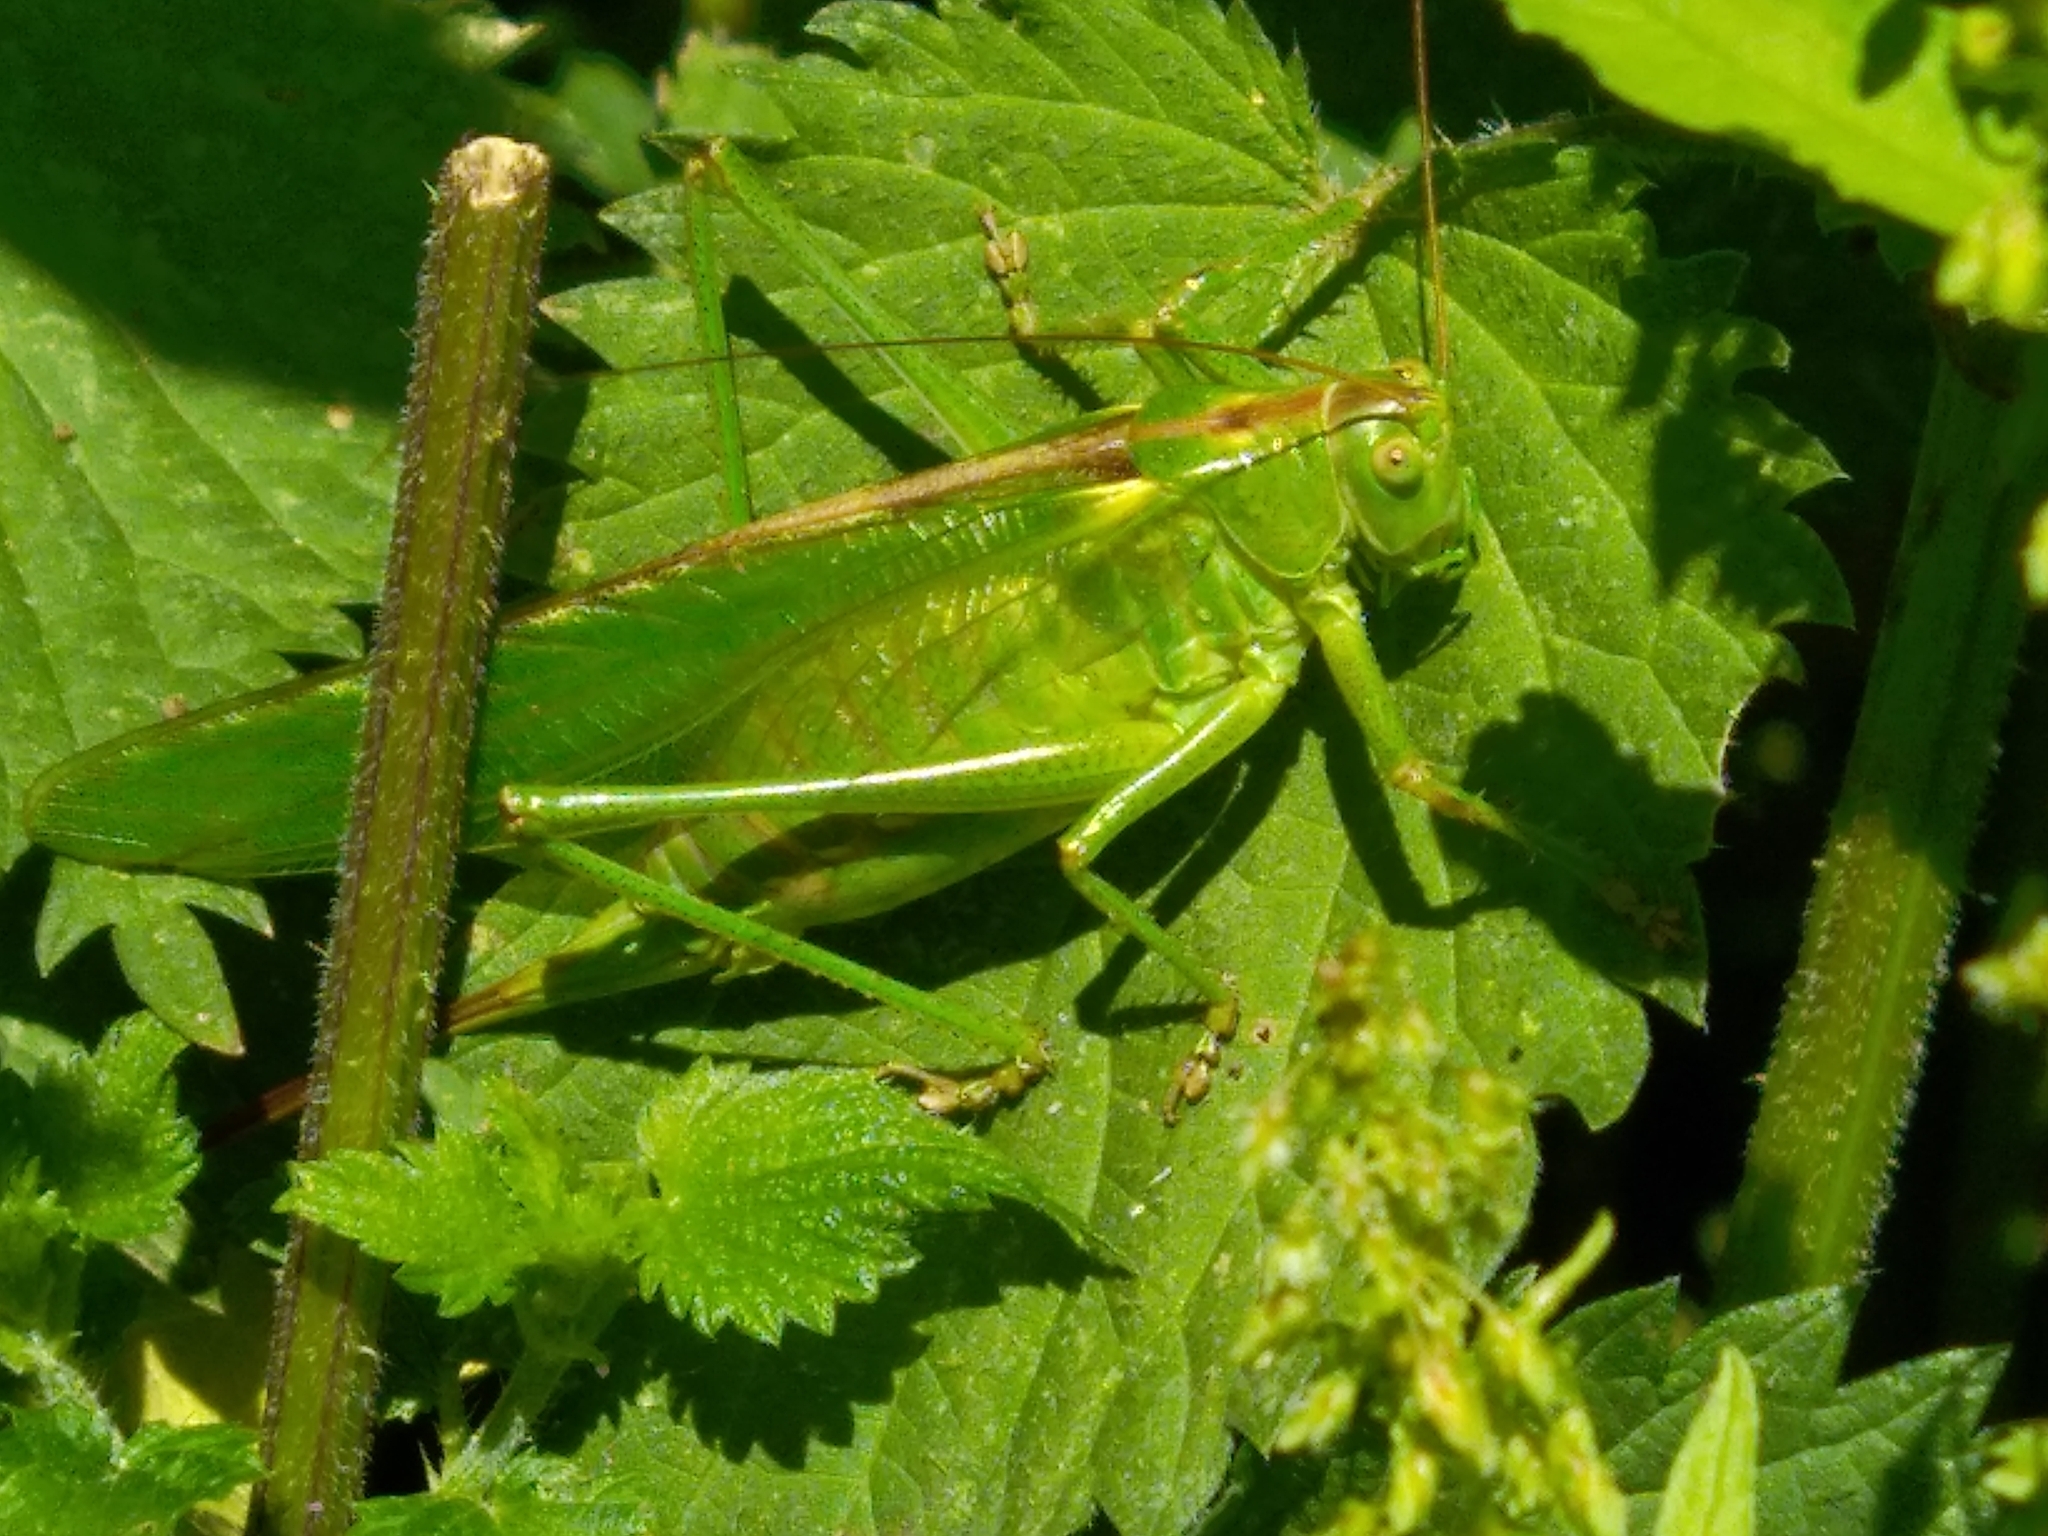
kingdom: Animalia
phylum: Arthropoda
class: Insecta
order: Orthoptera
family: Tettigoniidae
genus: Tettigonia
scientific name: Tettigonia viridissima
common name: Great green bush-cricket
